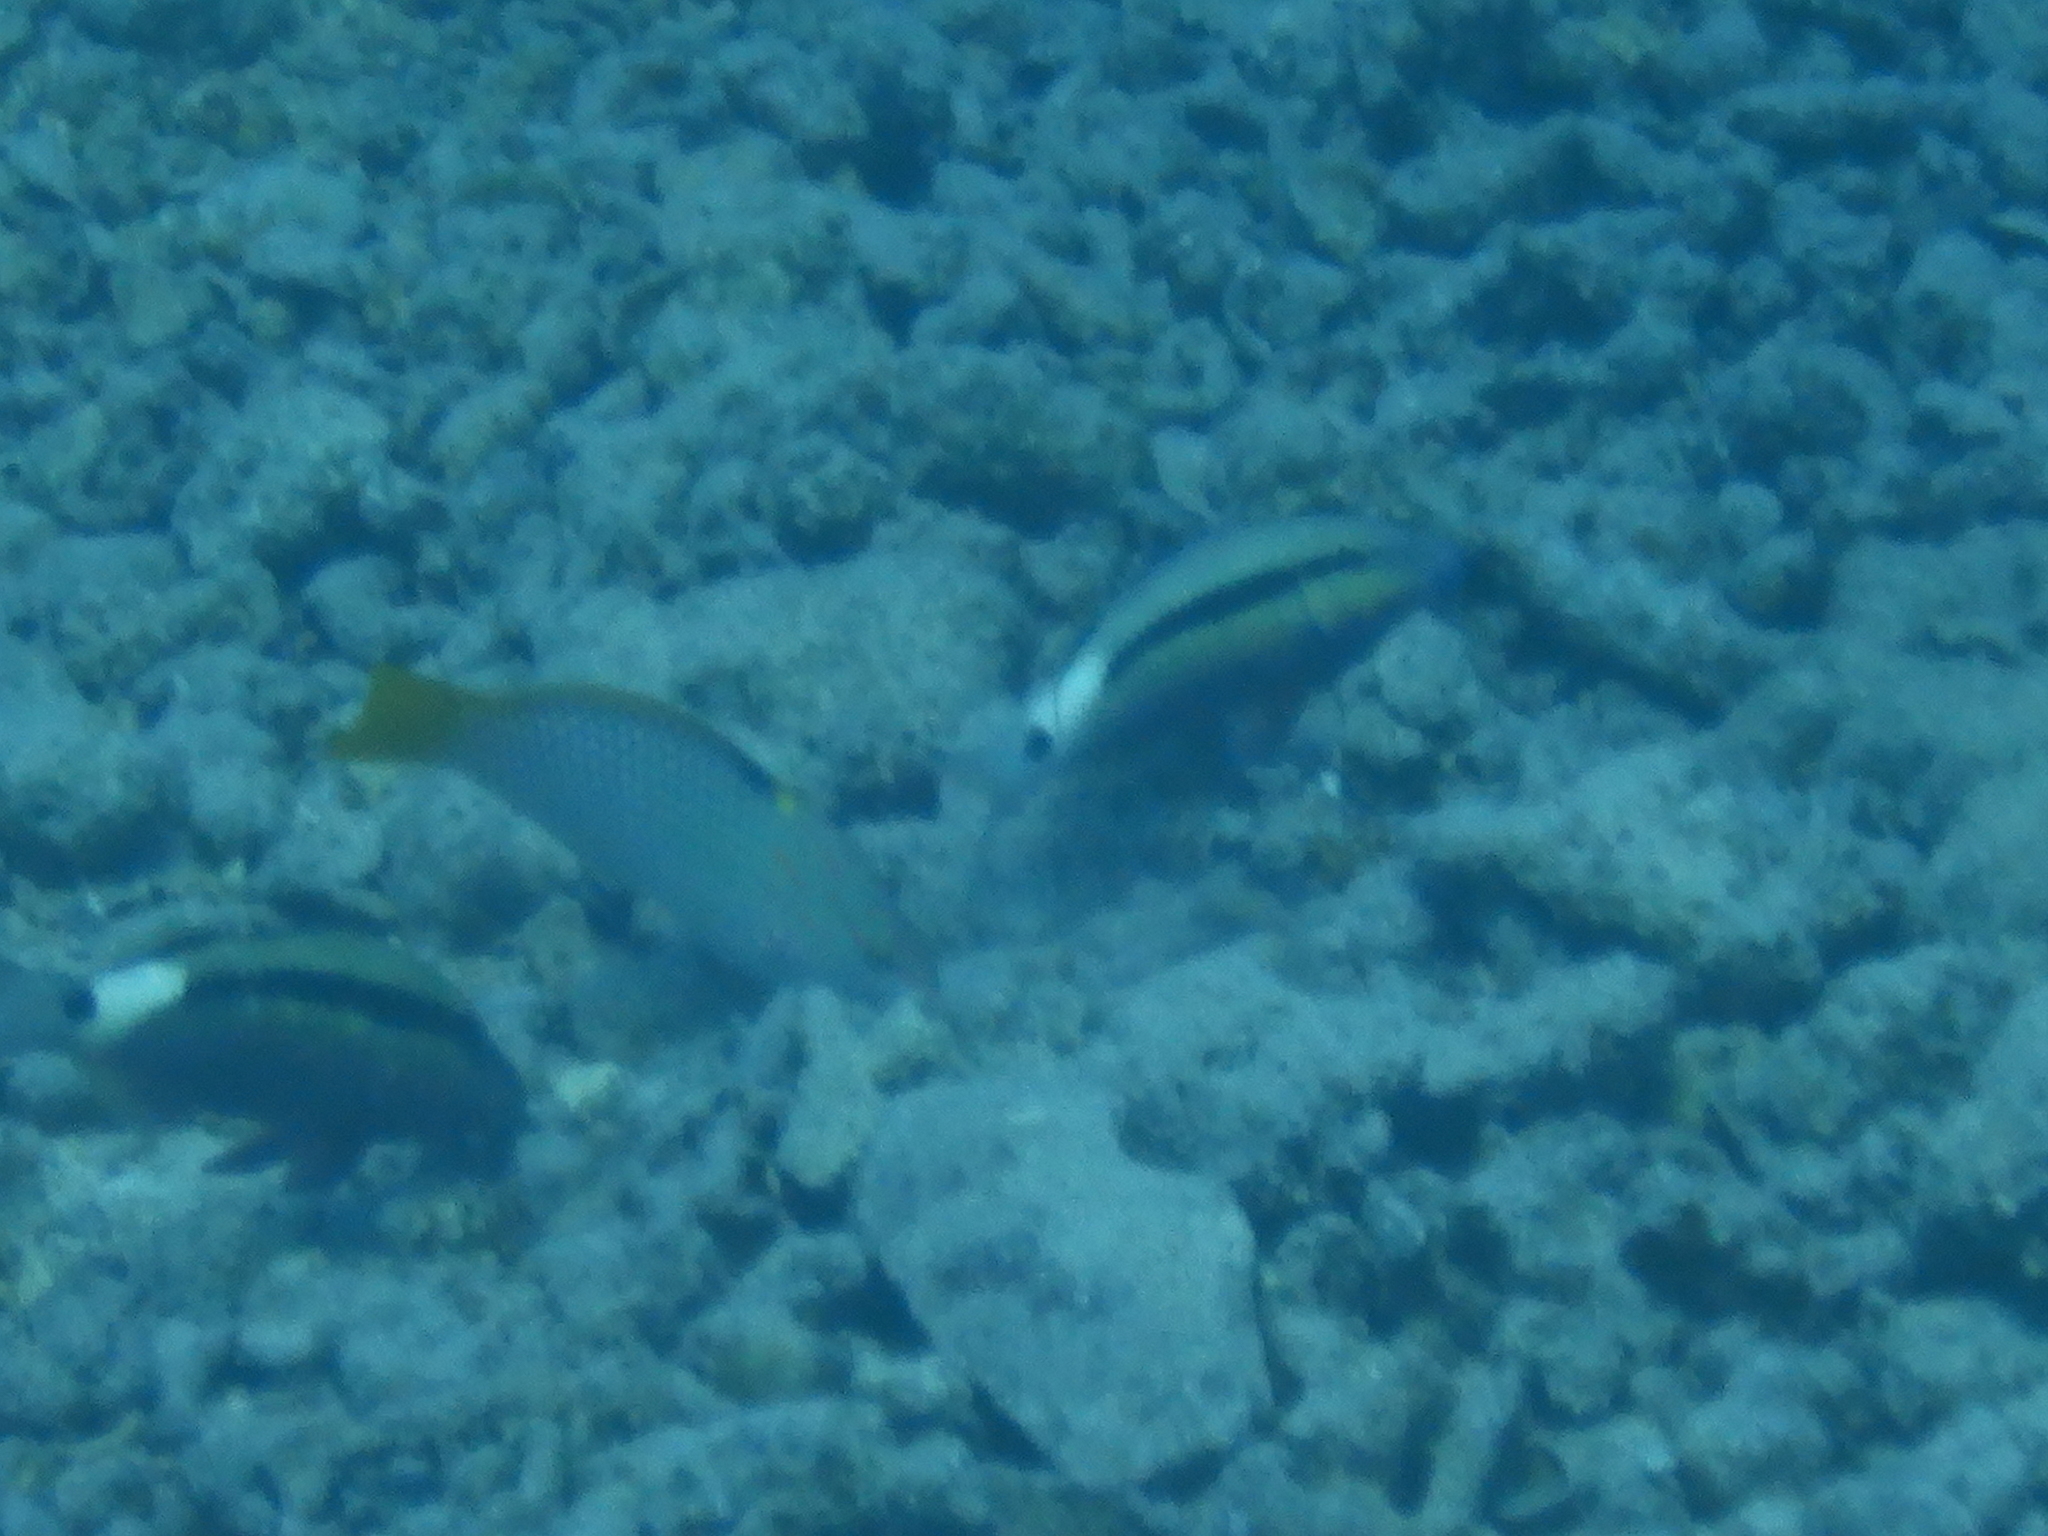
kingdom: Animalia
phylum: Chordata
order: Perciformes
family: Mullidae
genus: Parupeneus
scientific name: Parupeneus macronemus
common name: Long-barbel goatfish
